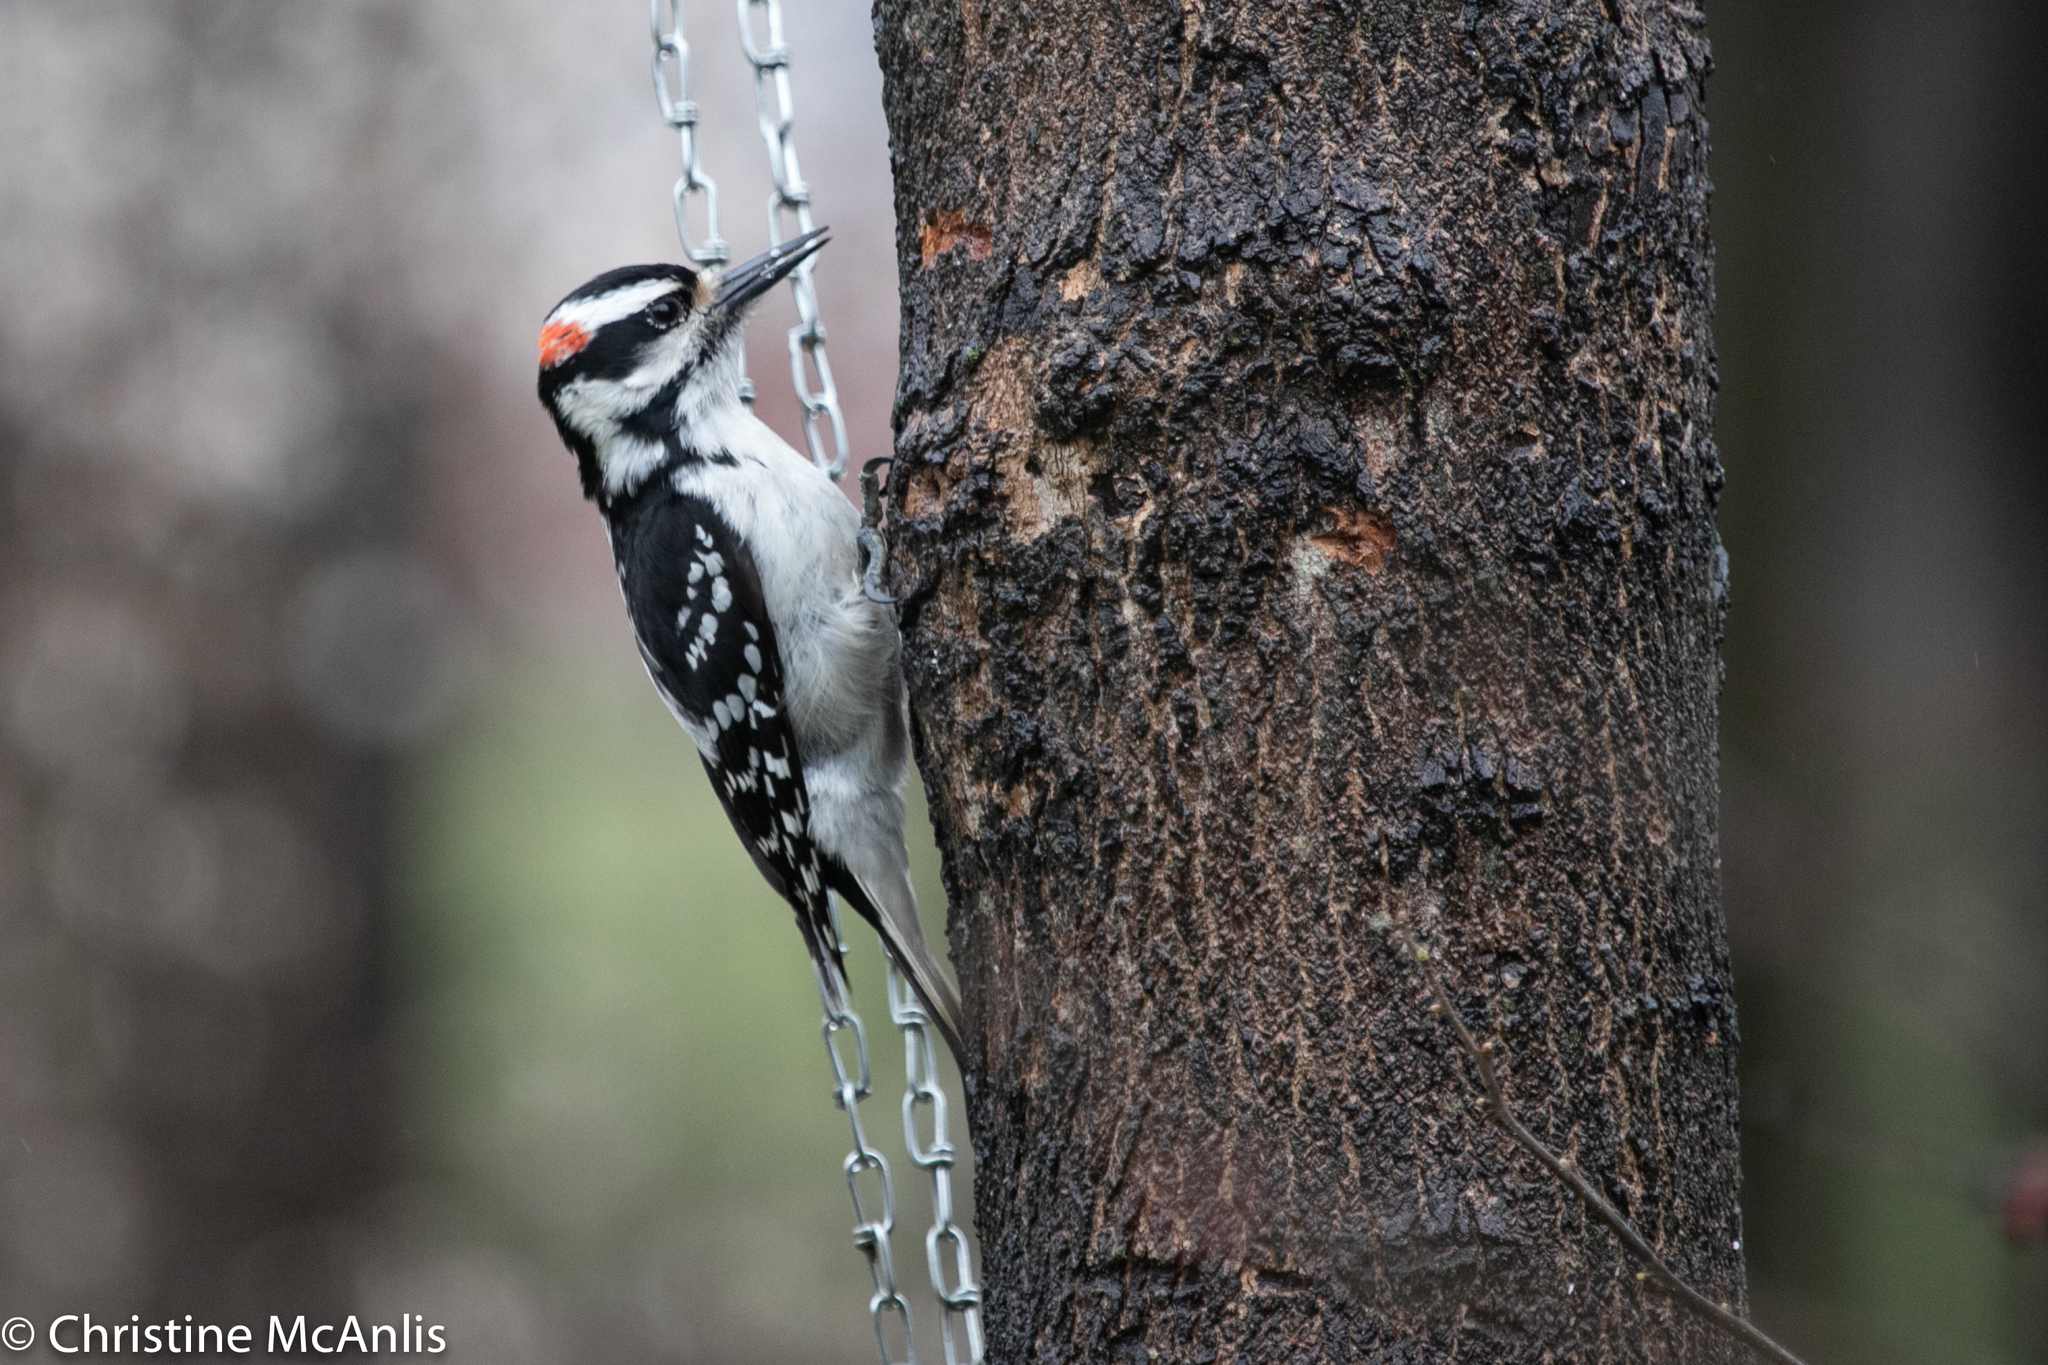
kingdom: Animalia
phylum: Chordata
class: Aves
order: Piciformes
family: Picidae
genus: Leuconotopicus
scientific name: Leuconotopicus villosus
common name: Hairy woodpecker
